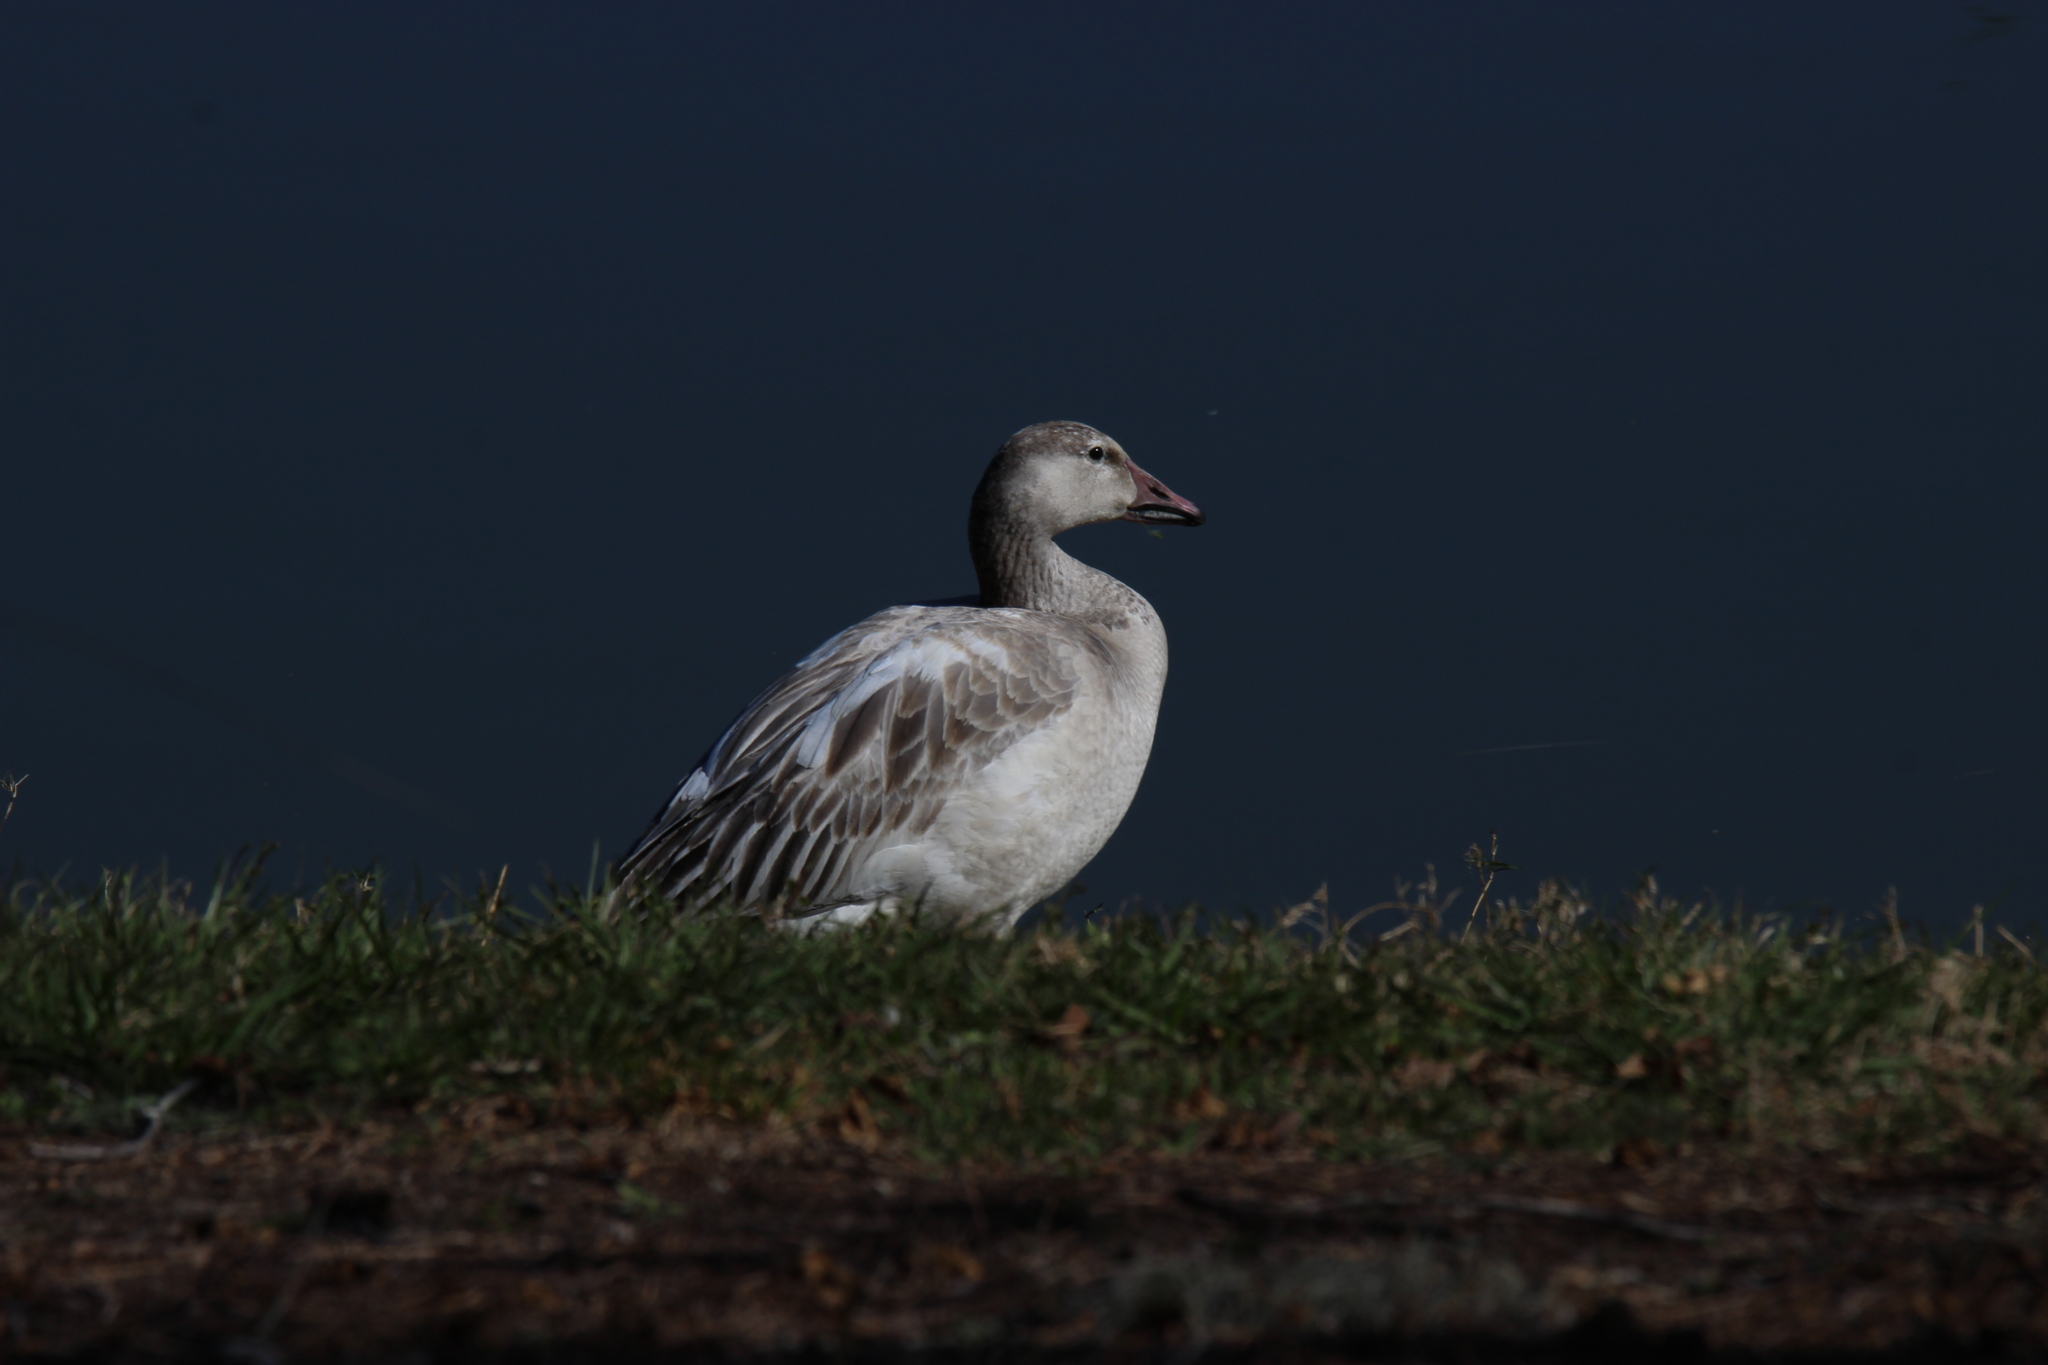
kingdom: Animalia
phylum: Chordata
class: Aves
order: Anseriformes
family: Anatidae
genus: Anser
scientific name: Anser caerulescens
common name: Snow goose
